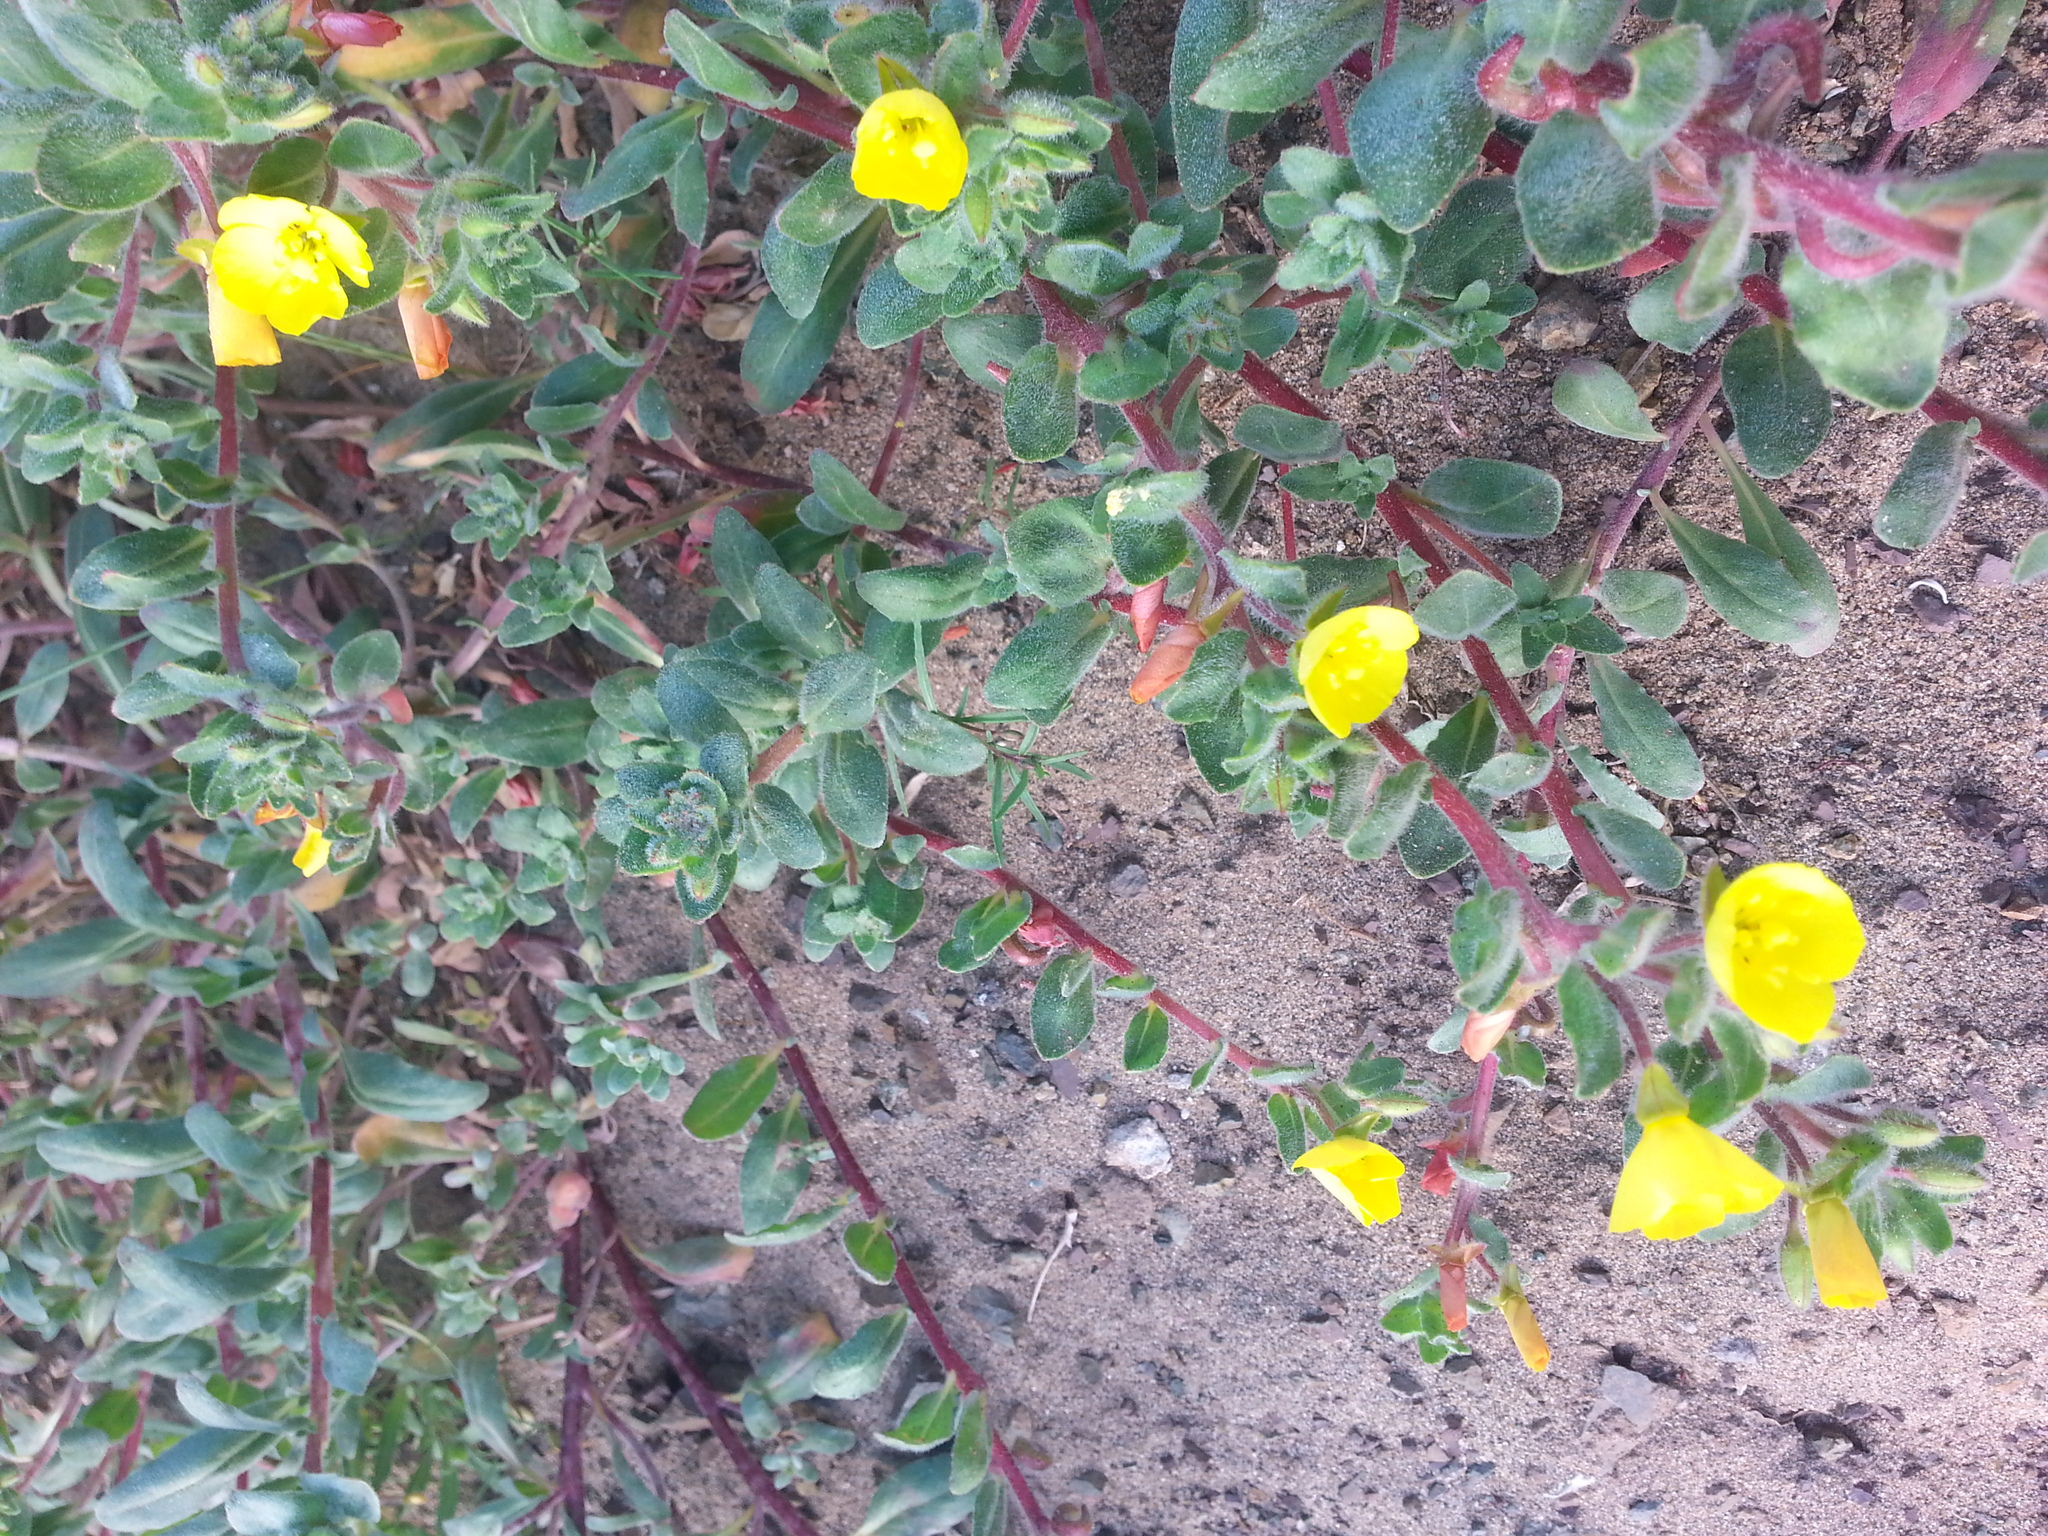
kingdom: Plantae
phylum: Tracheophyta
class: Magnoliopsida
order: Myrtales
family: Onagraceae
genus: Camissoniopsis
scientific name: Camissoniopsis cheiranthifolia
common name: Beach suncup
